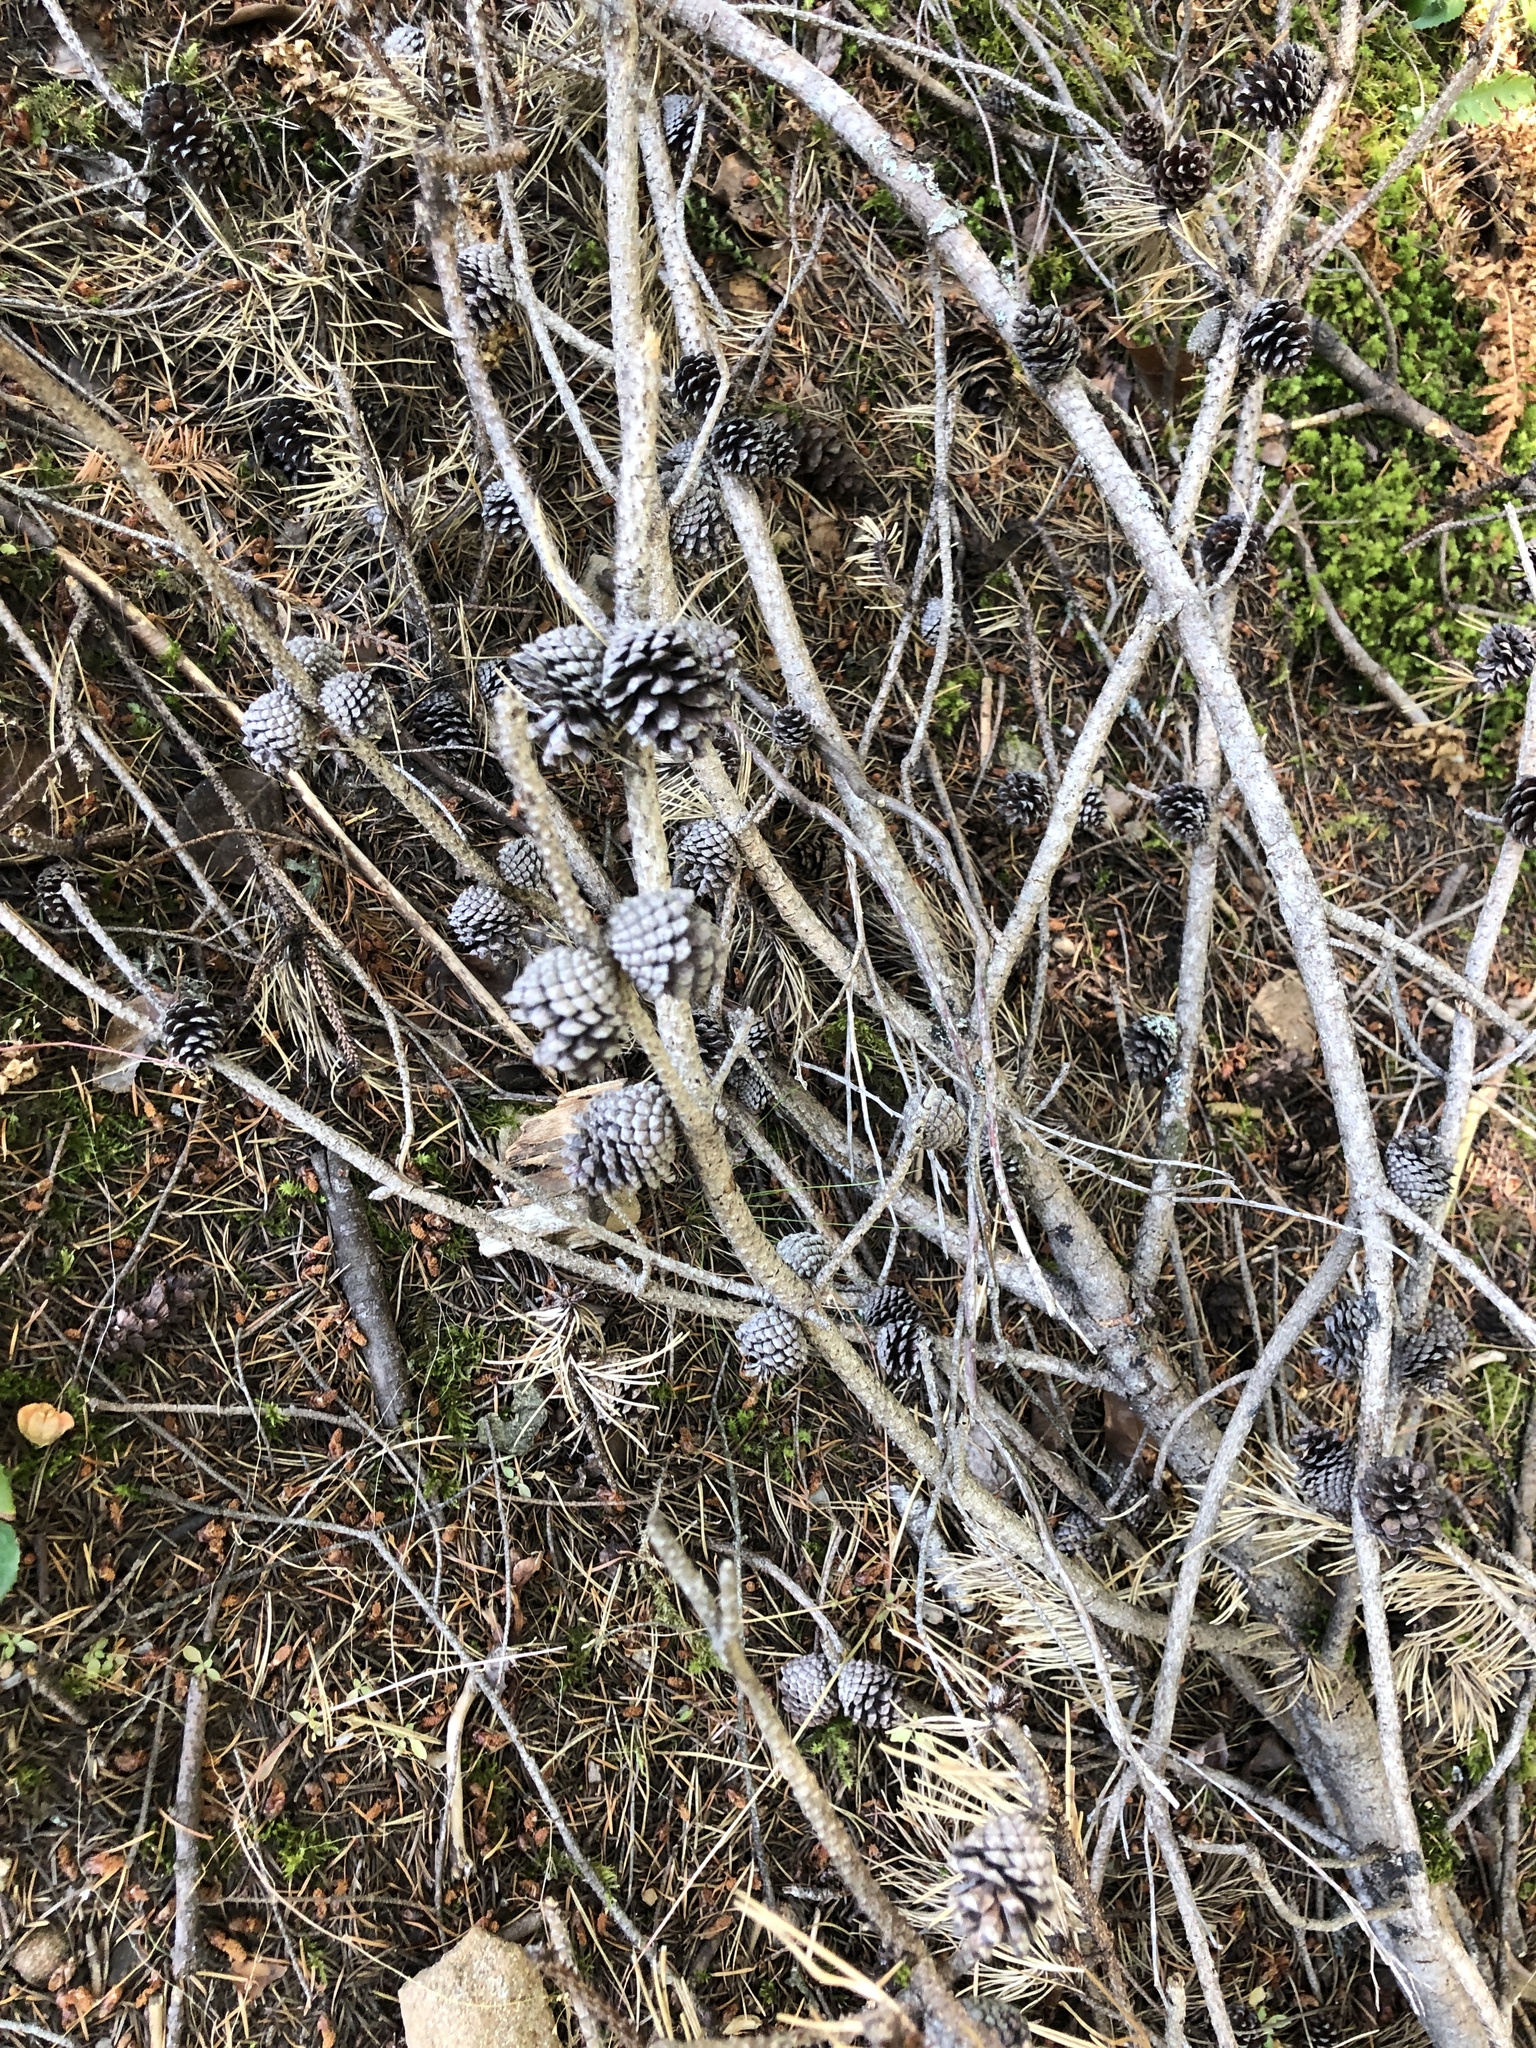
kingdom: Plantae
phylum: Tracheophyta
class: Pinopsida
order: Pinales
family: Pinaceae
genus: Pinus
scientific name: Pinus contorta
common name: Lodgepole pine
